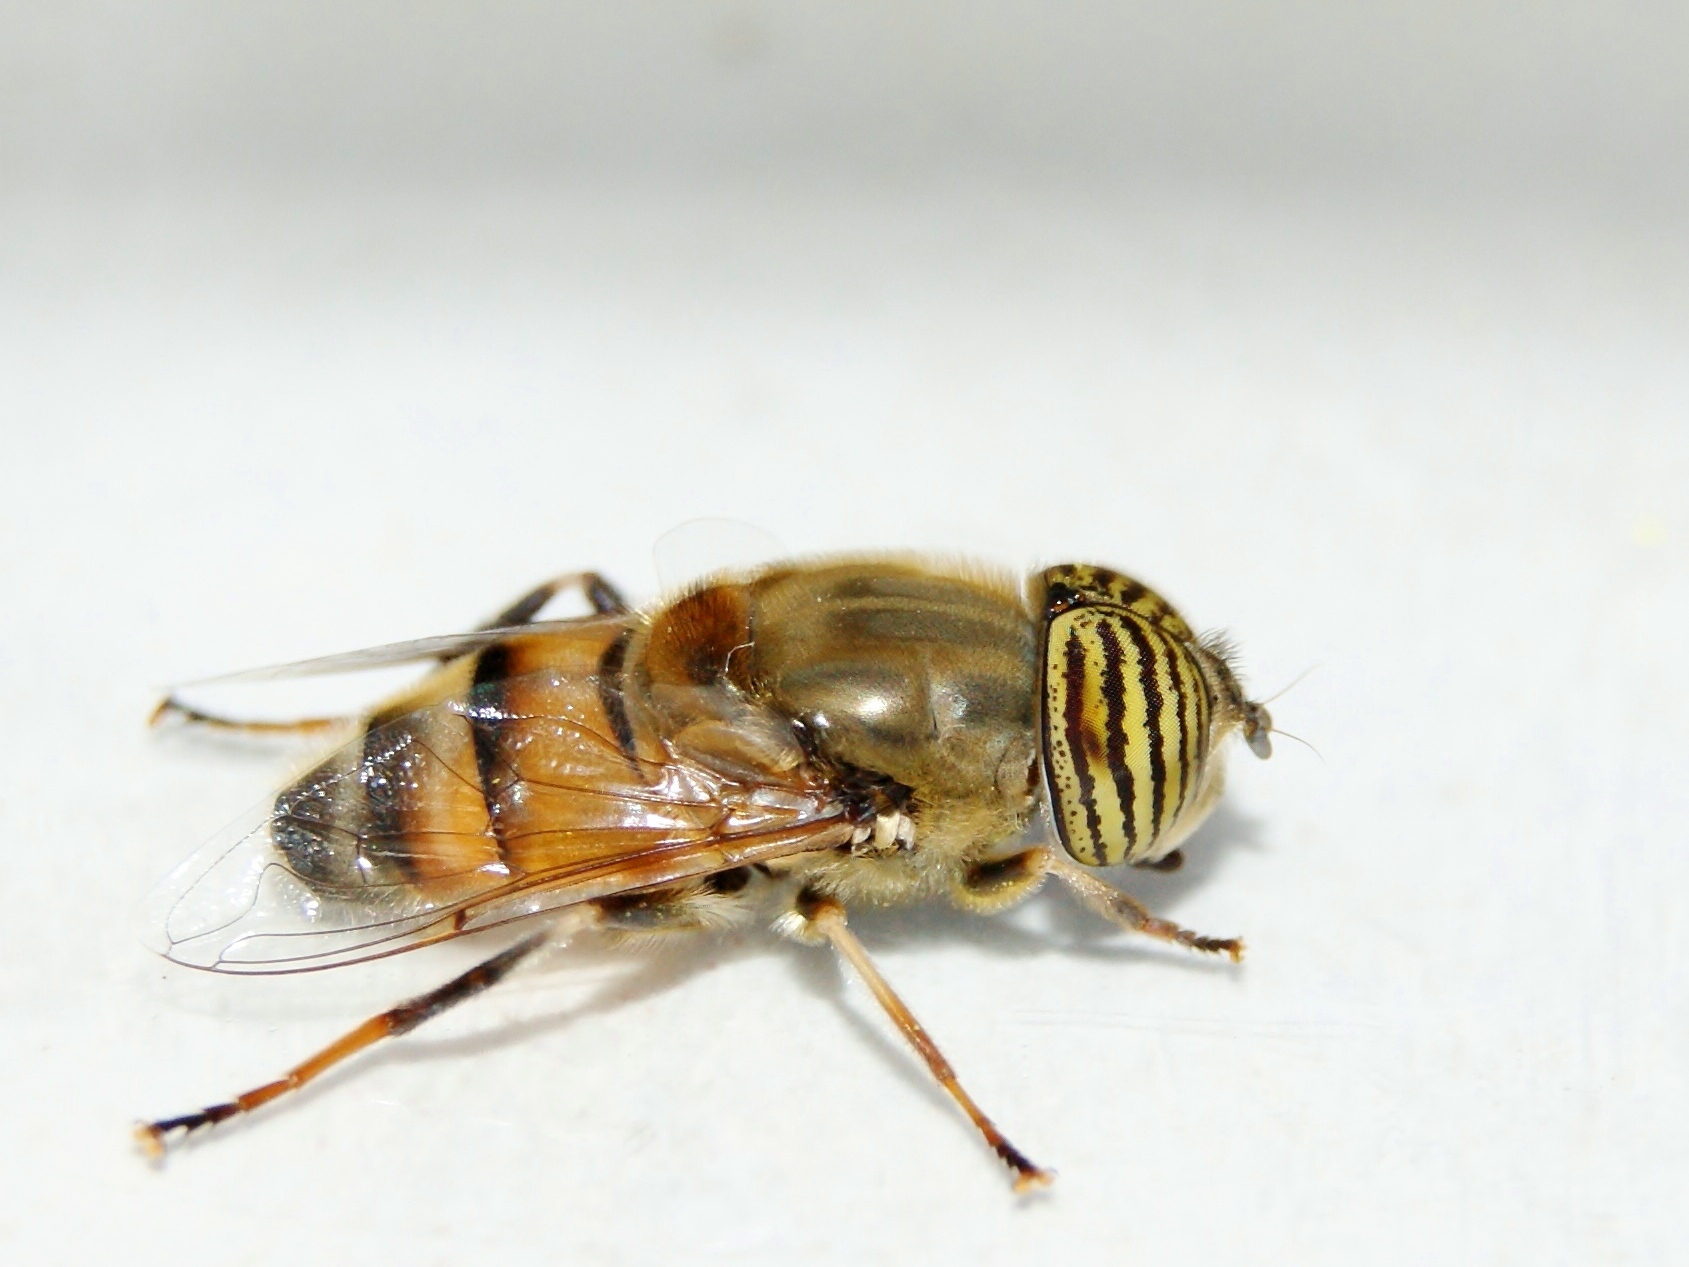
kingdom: Animalia
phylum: Arthropoda
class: Insecta
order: Diptera
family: Syrphidae
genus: Eristalinus
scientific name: Eristalinus taeniops
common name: Syrphid fly
